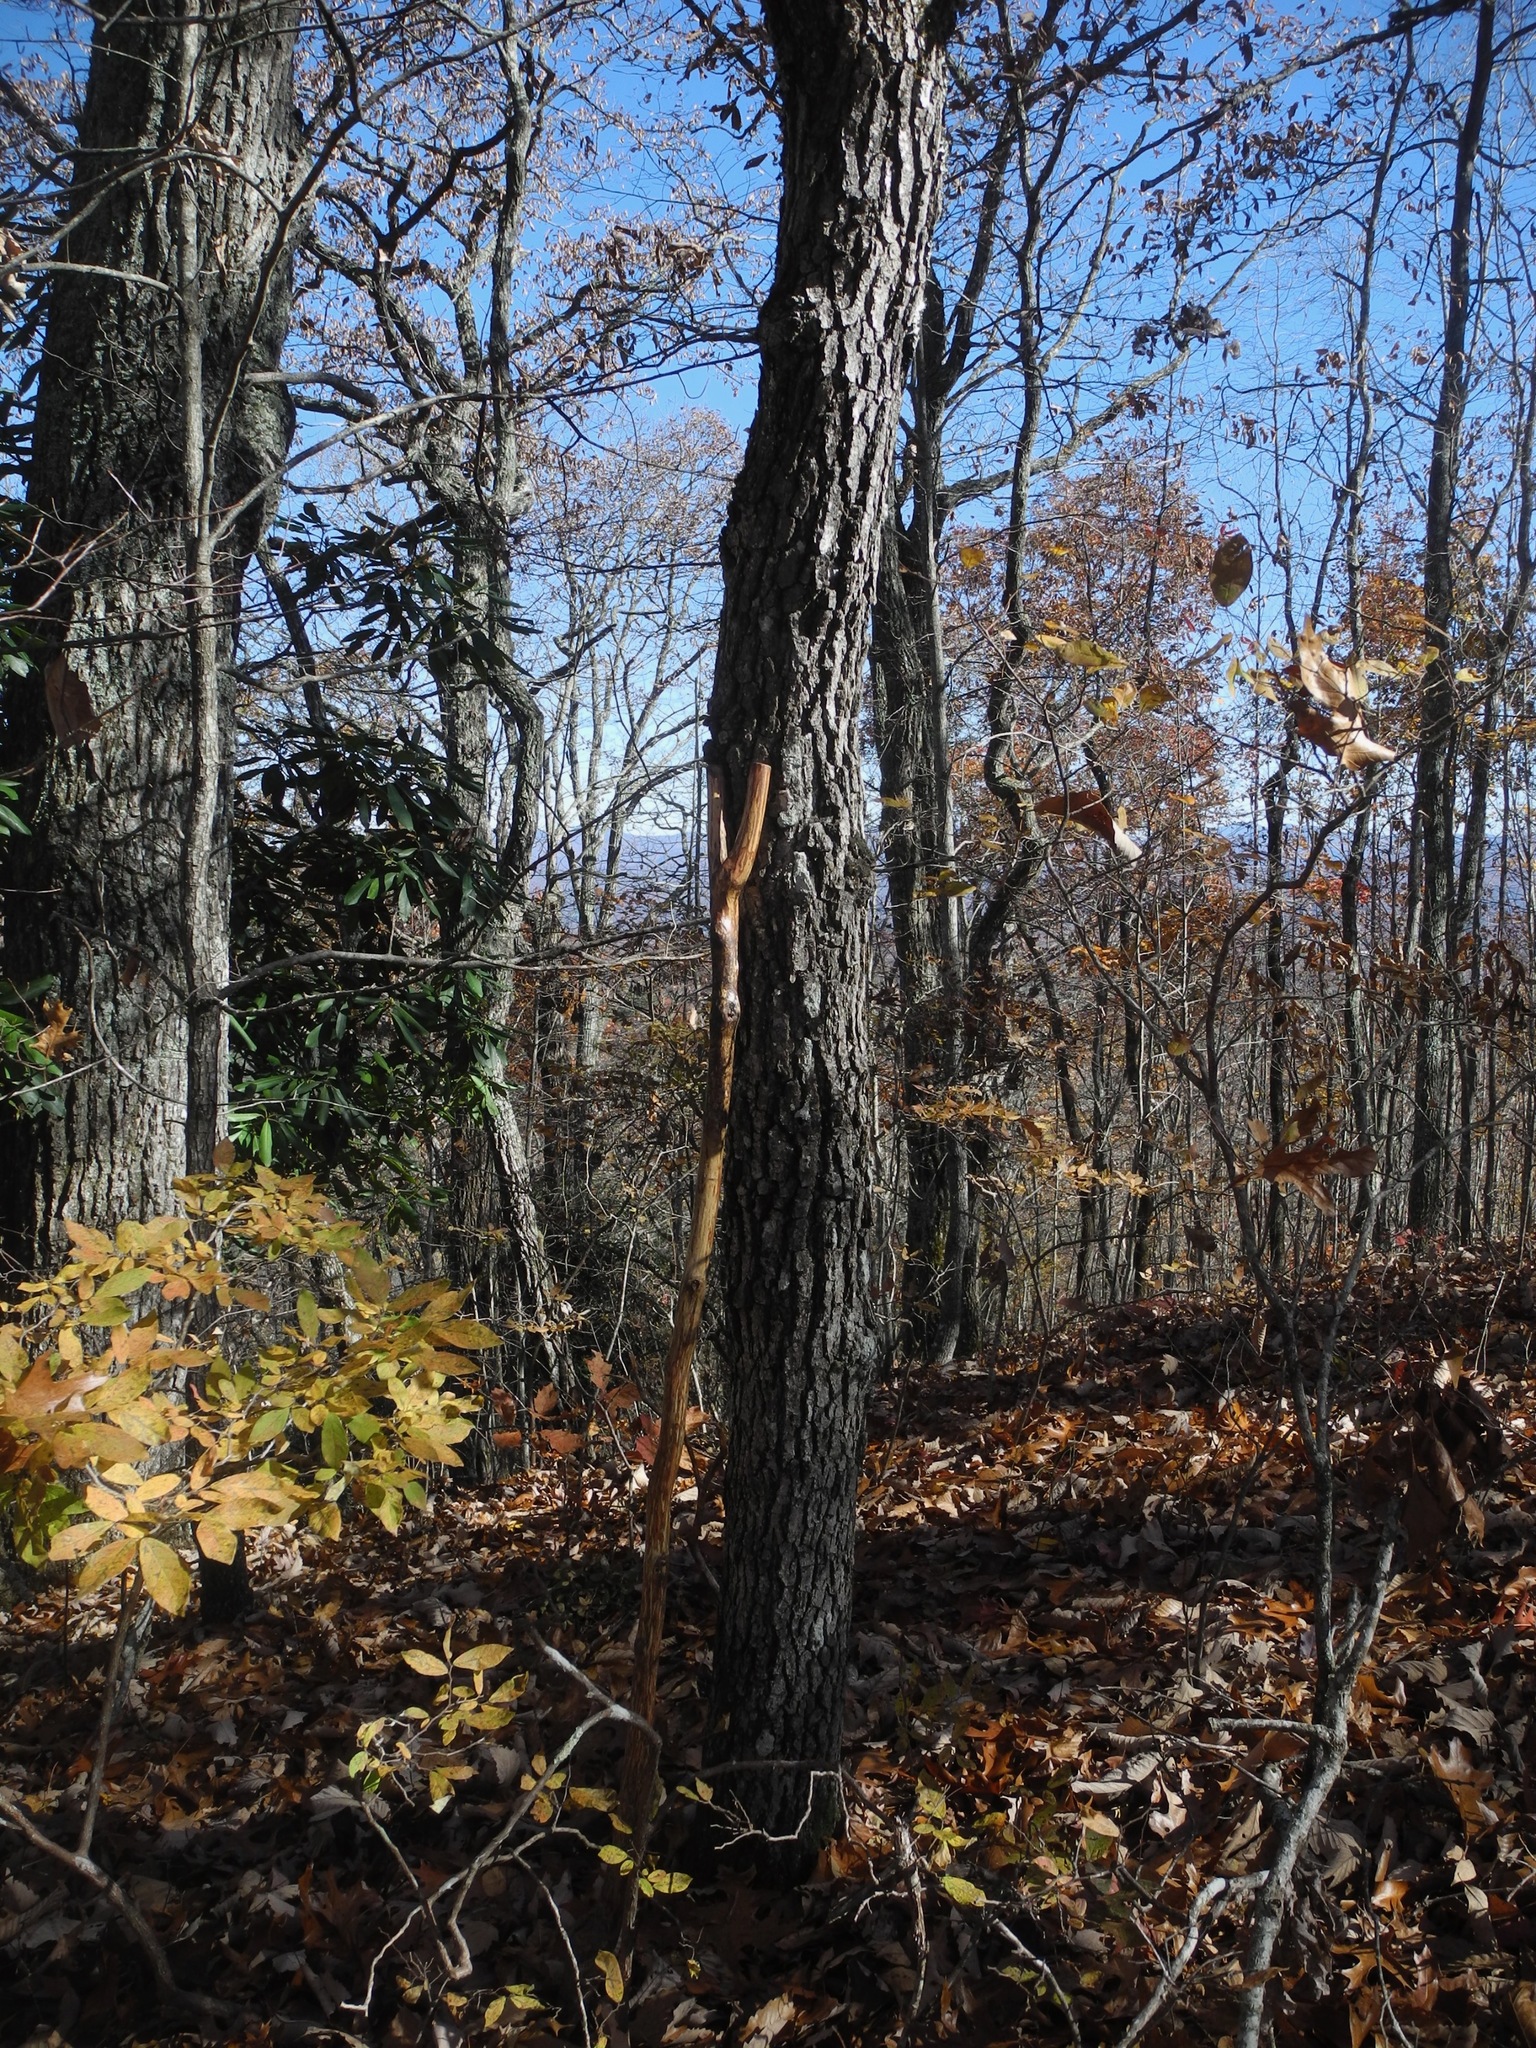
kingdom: Plantae
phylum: Tracheophyta
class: Magnoliopsida
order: Fagales
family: Fagaceae
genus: Quercus
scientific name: Quercus velutina
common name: Black oak
